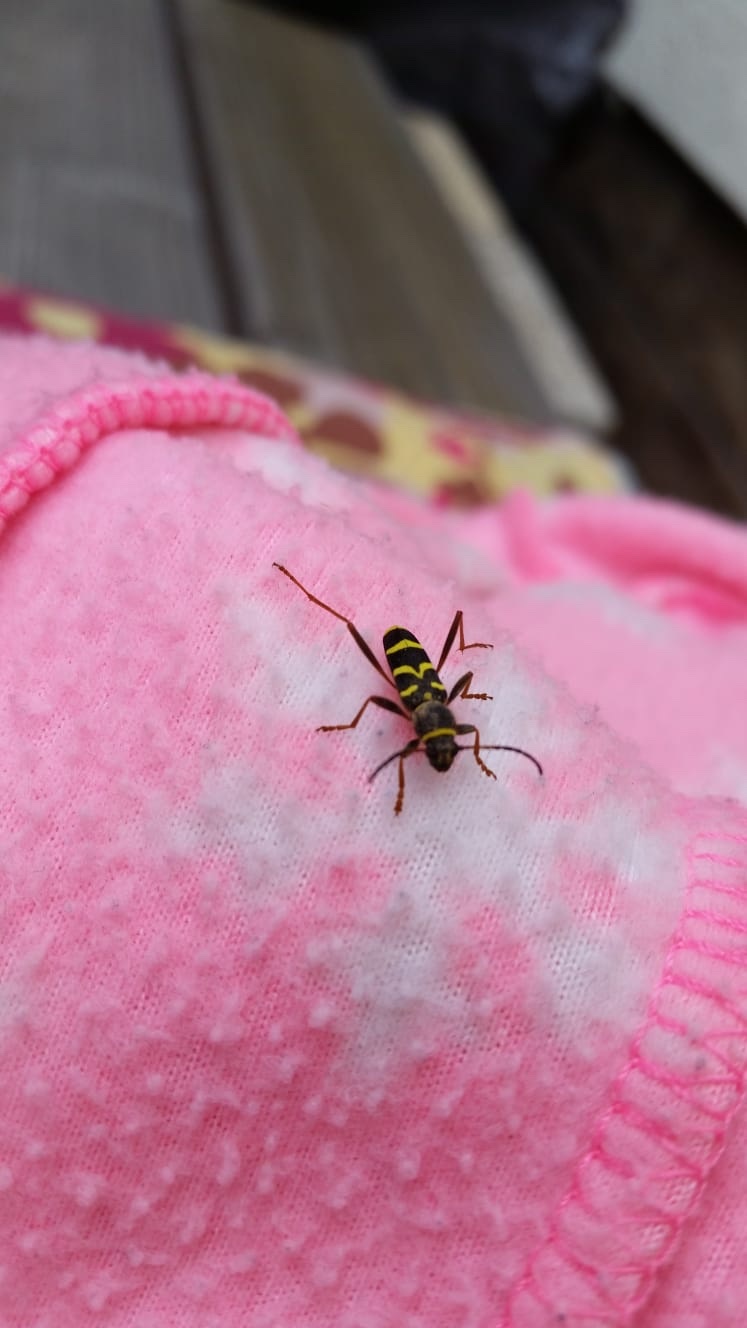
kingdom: Animalia
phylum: Arthropoda
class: Insecta
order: Coleoptera
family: Cerambycidae
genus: Clytus
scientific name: Clytus arietis
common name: Wasp beetle
